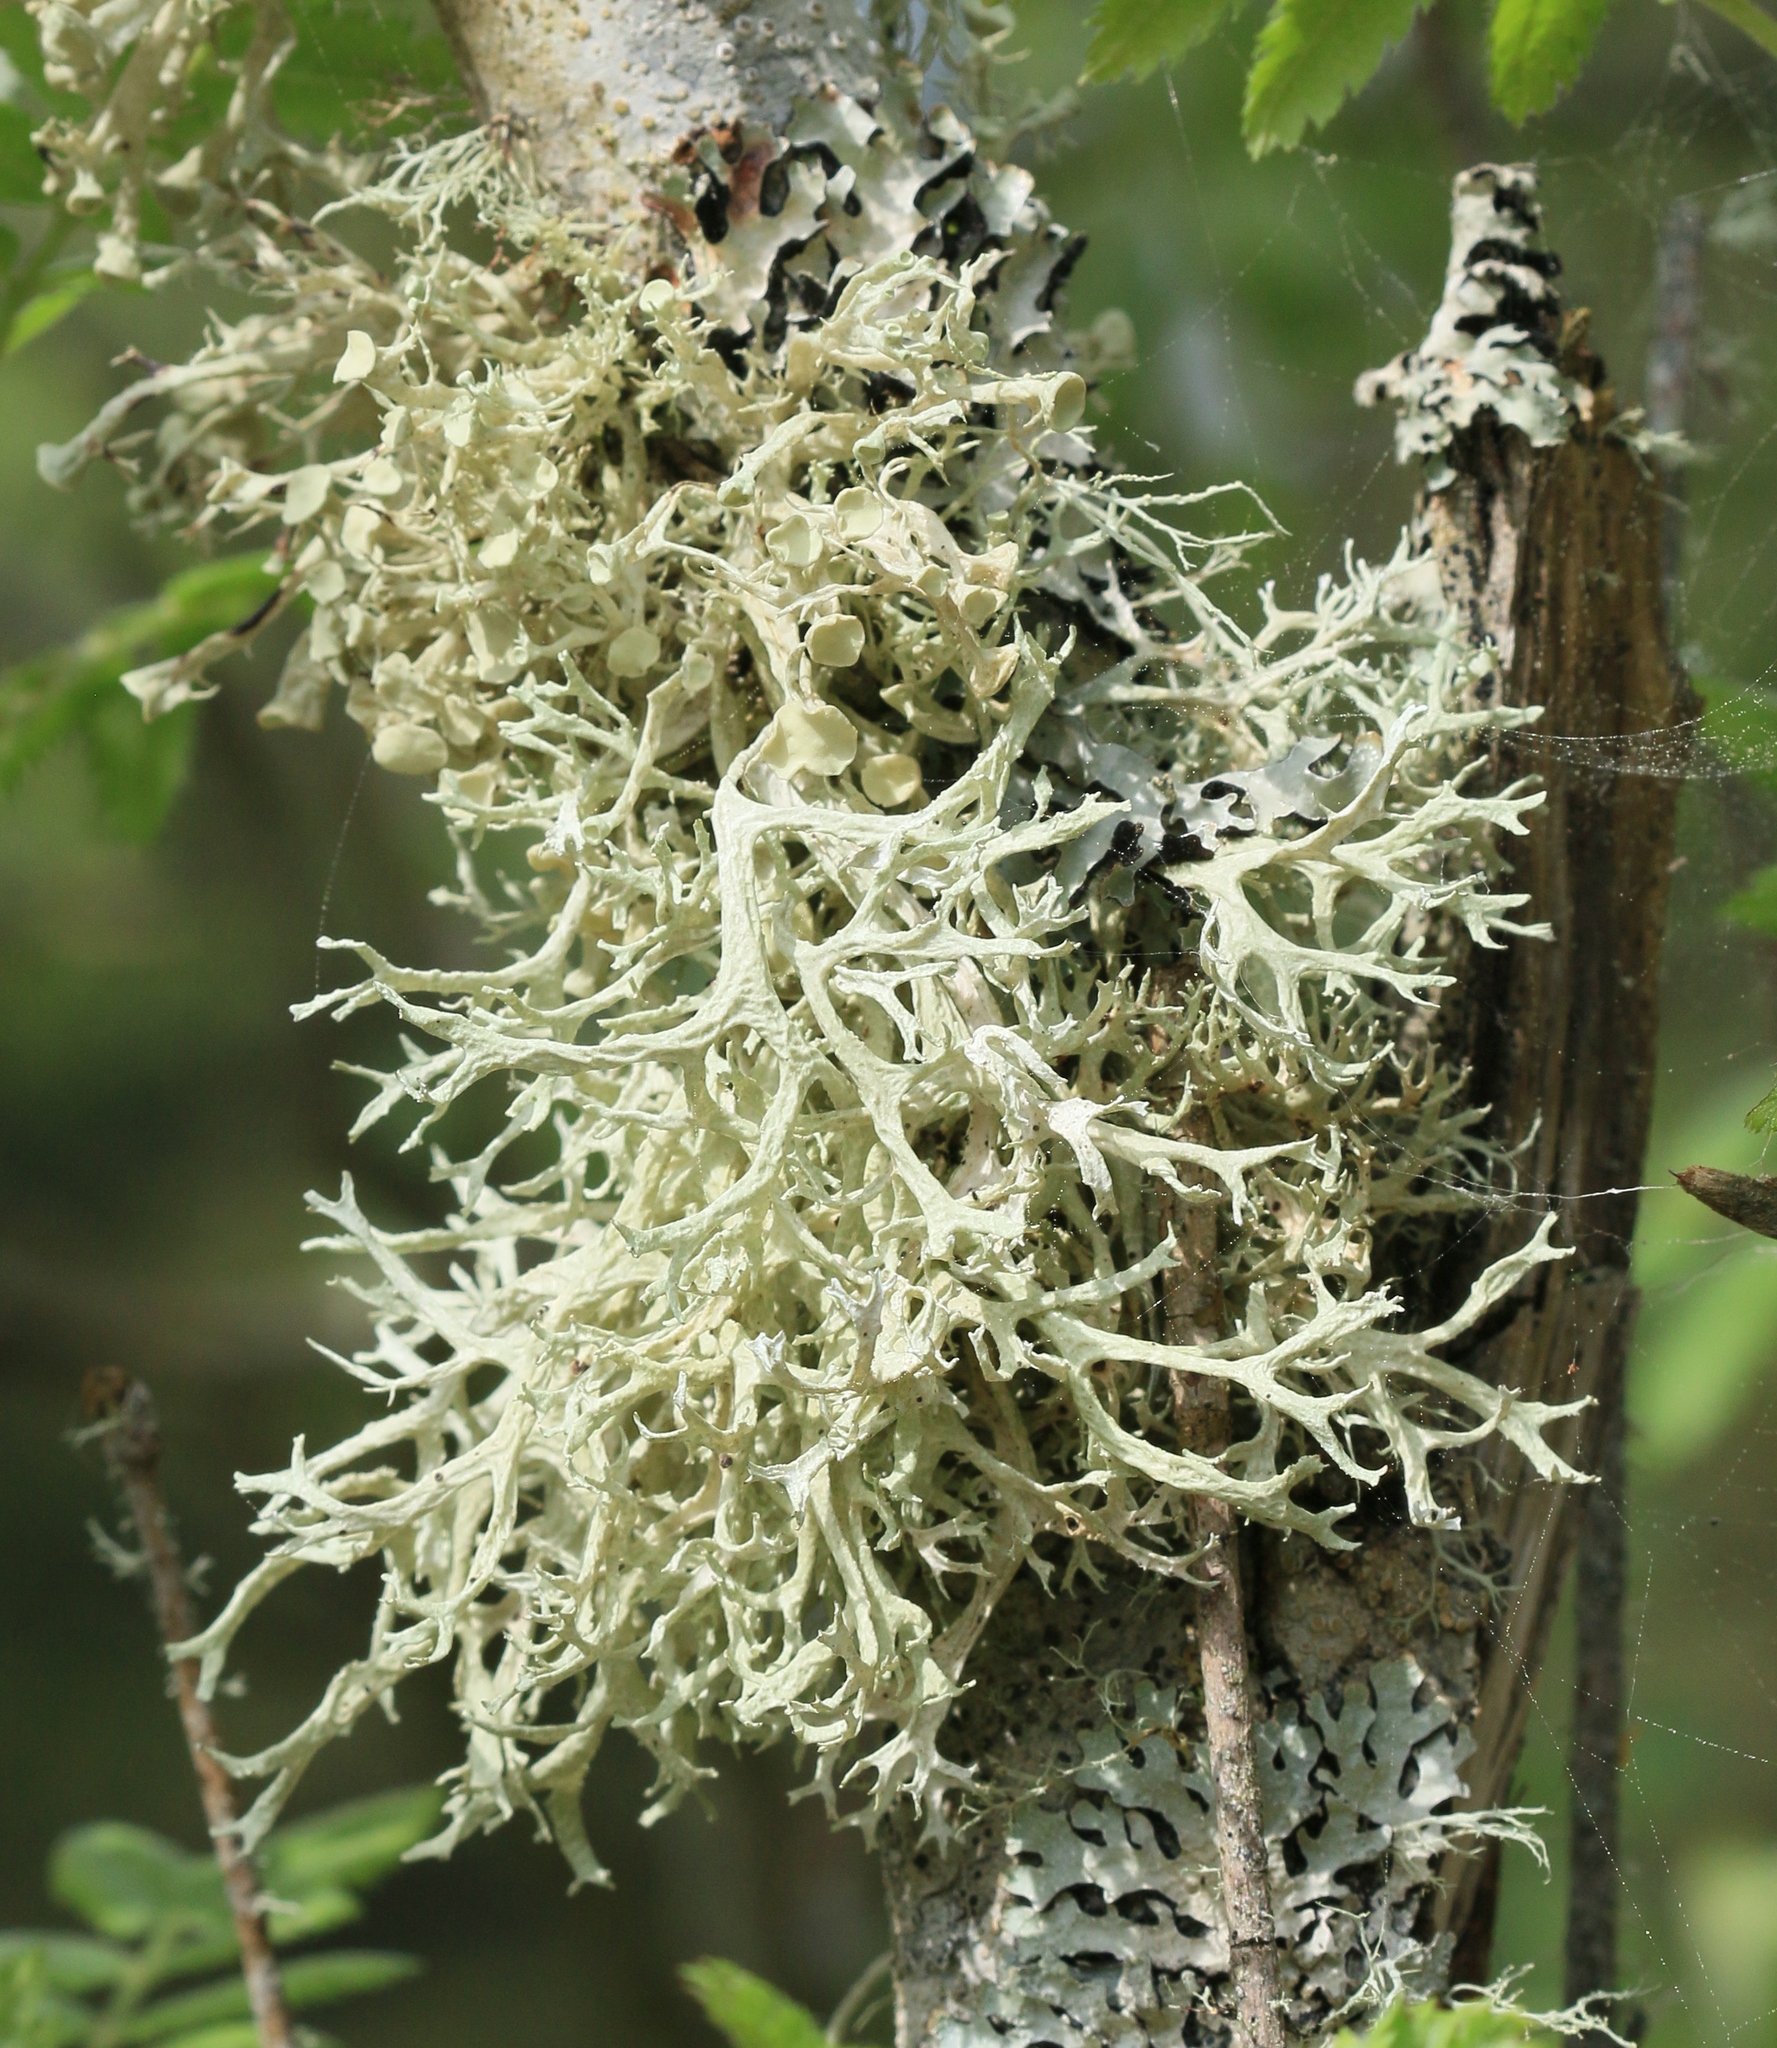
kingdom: Fungi
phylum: Ascomycota
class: Lecanoromycetes
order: Lecanorales
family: Parmeliaceae
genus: Evernia
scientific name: Evernia prunastri
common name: Oak moss
